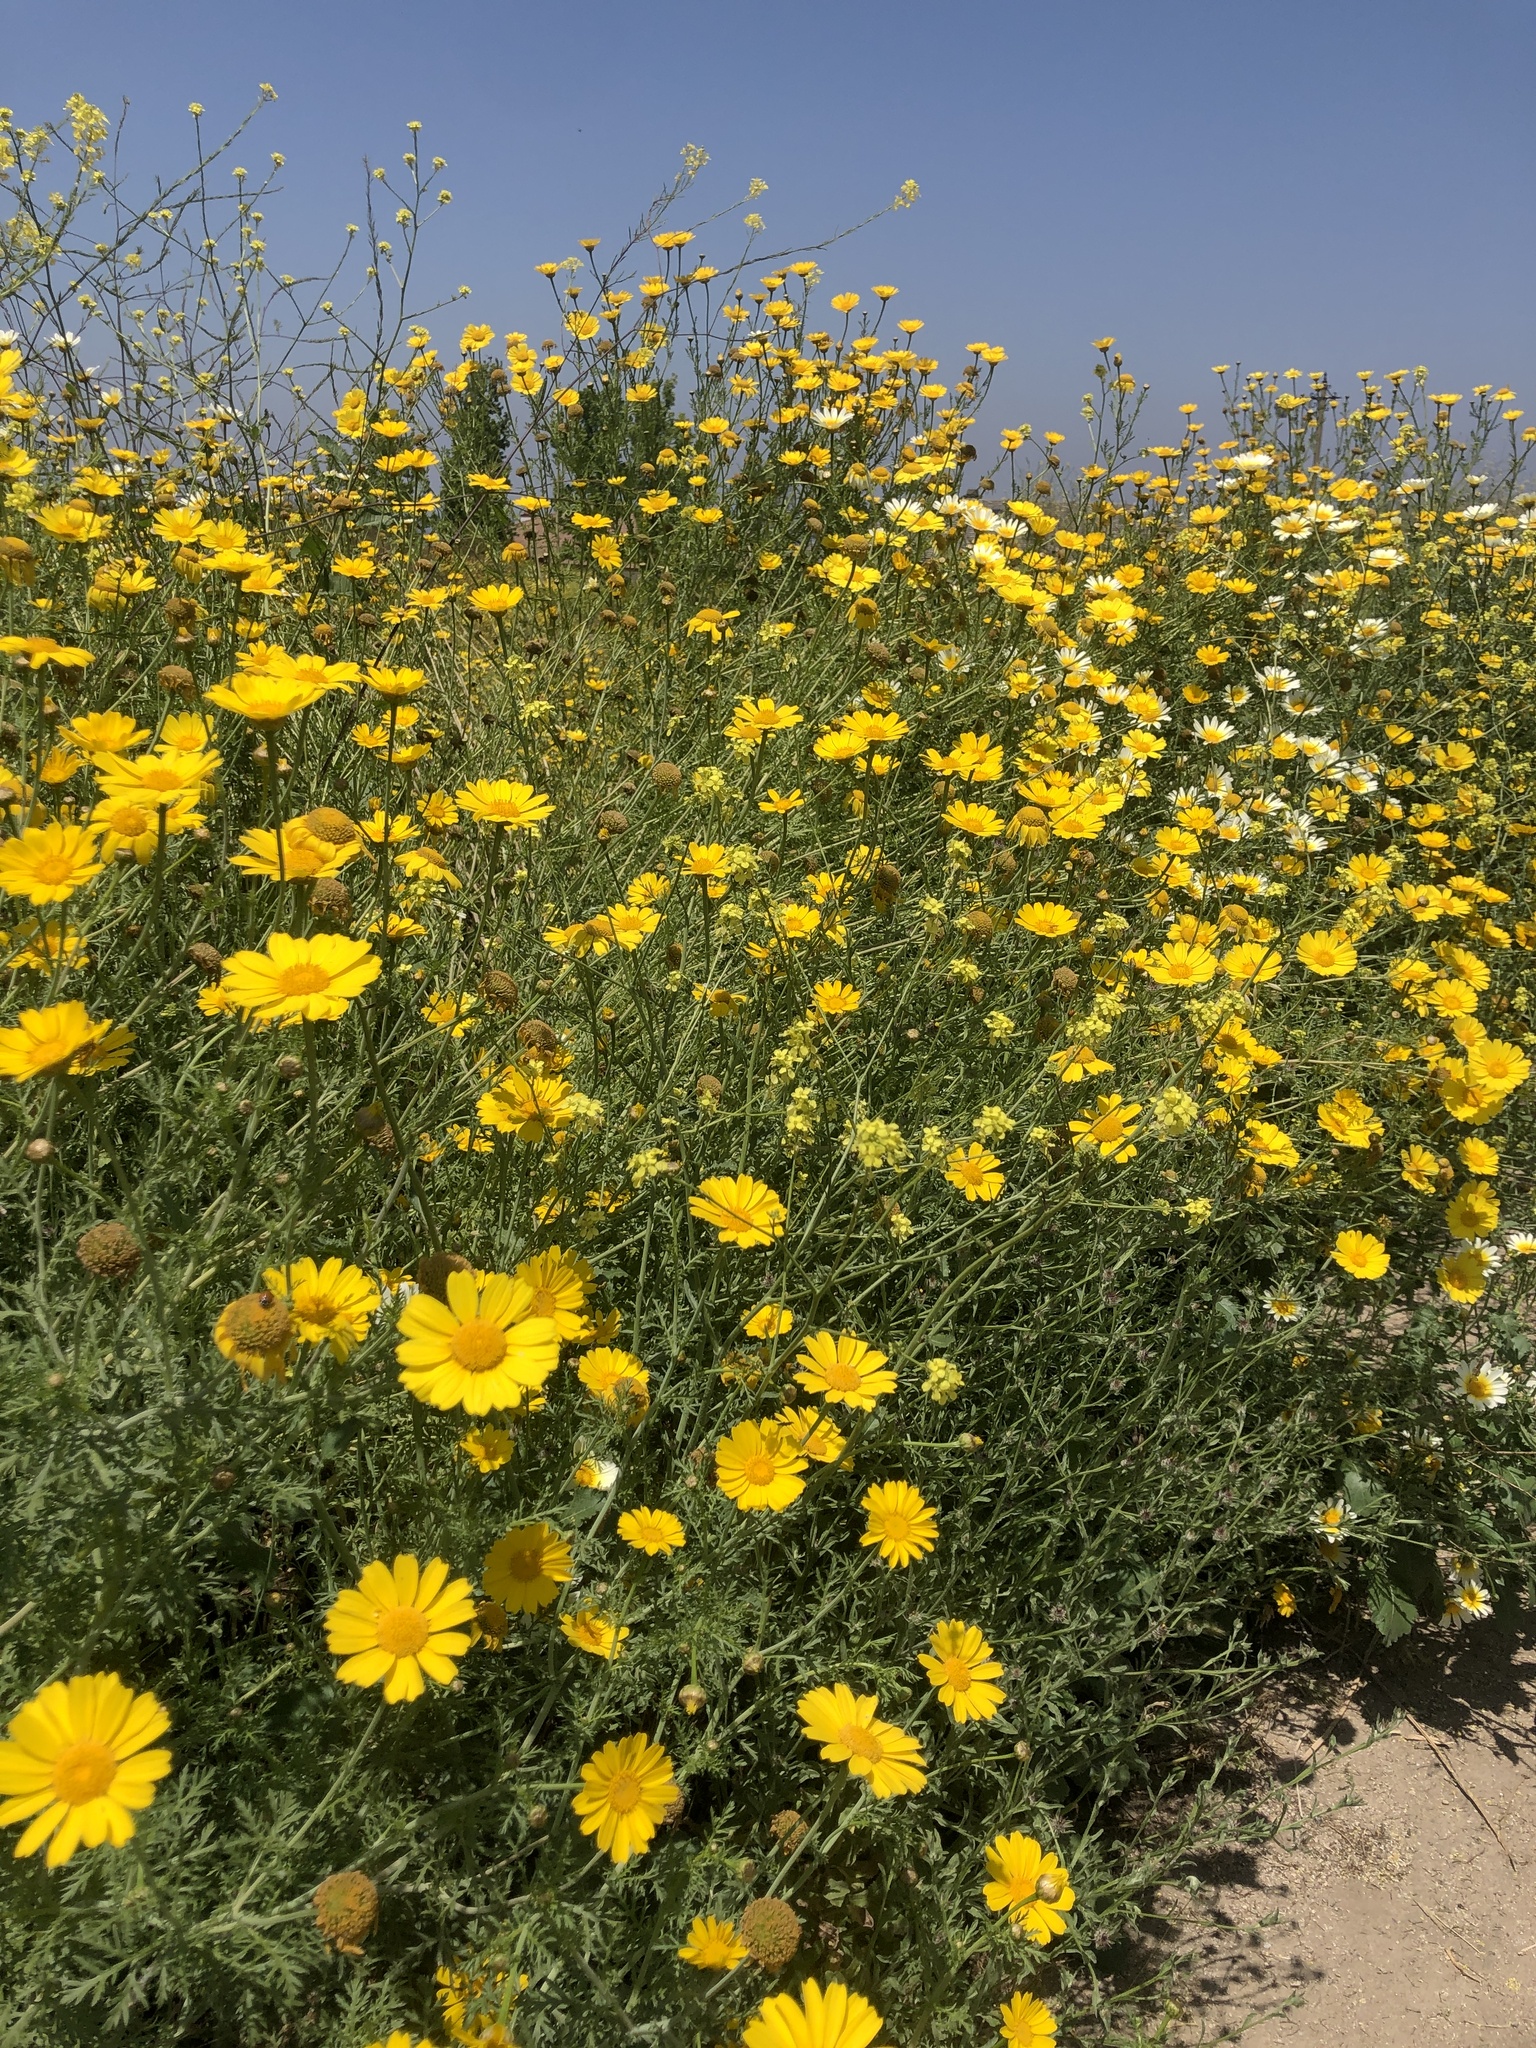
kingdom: Plantae
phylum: Tracheophyta
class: Magnoliopsida
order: Asterales
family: Asteraceae
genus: Glebionis
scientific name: Glebionis coronaria
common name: Crowndaisy
